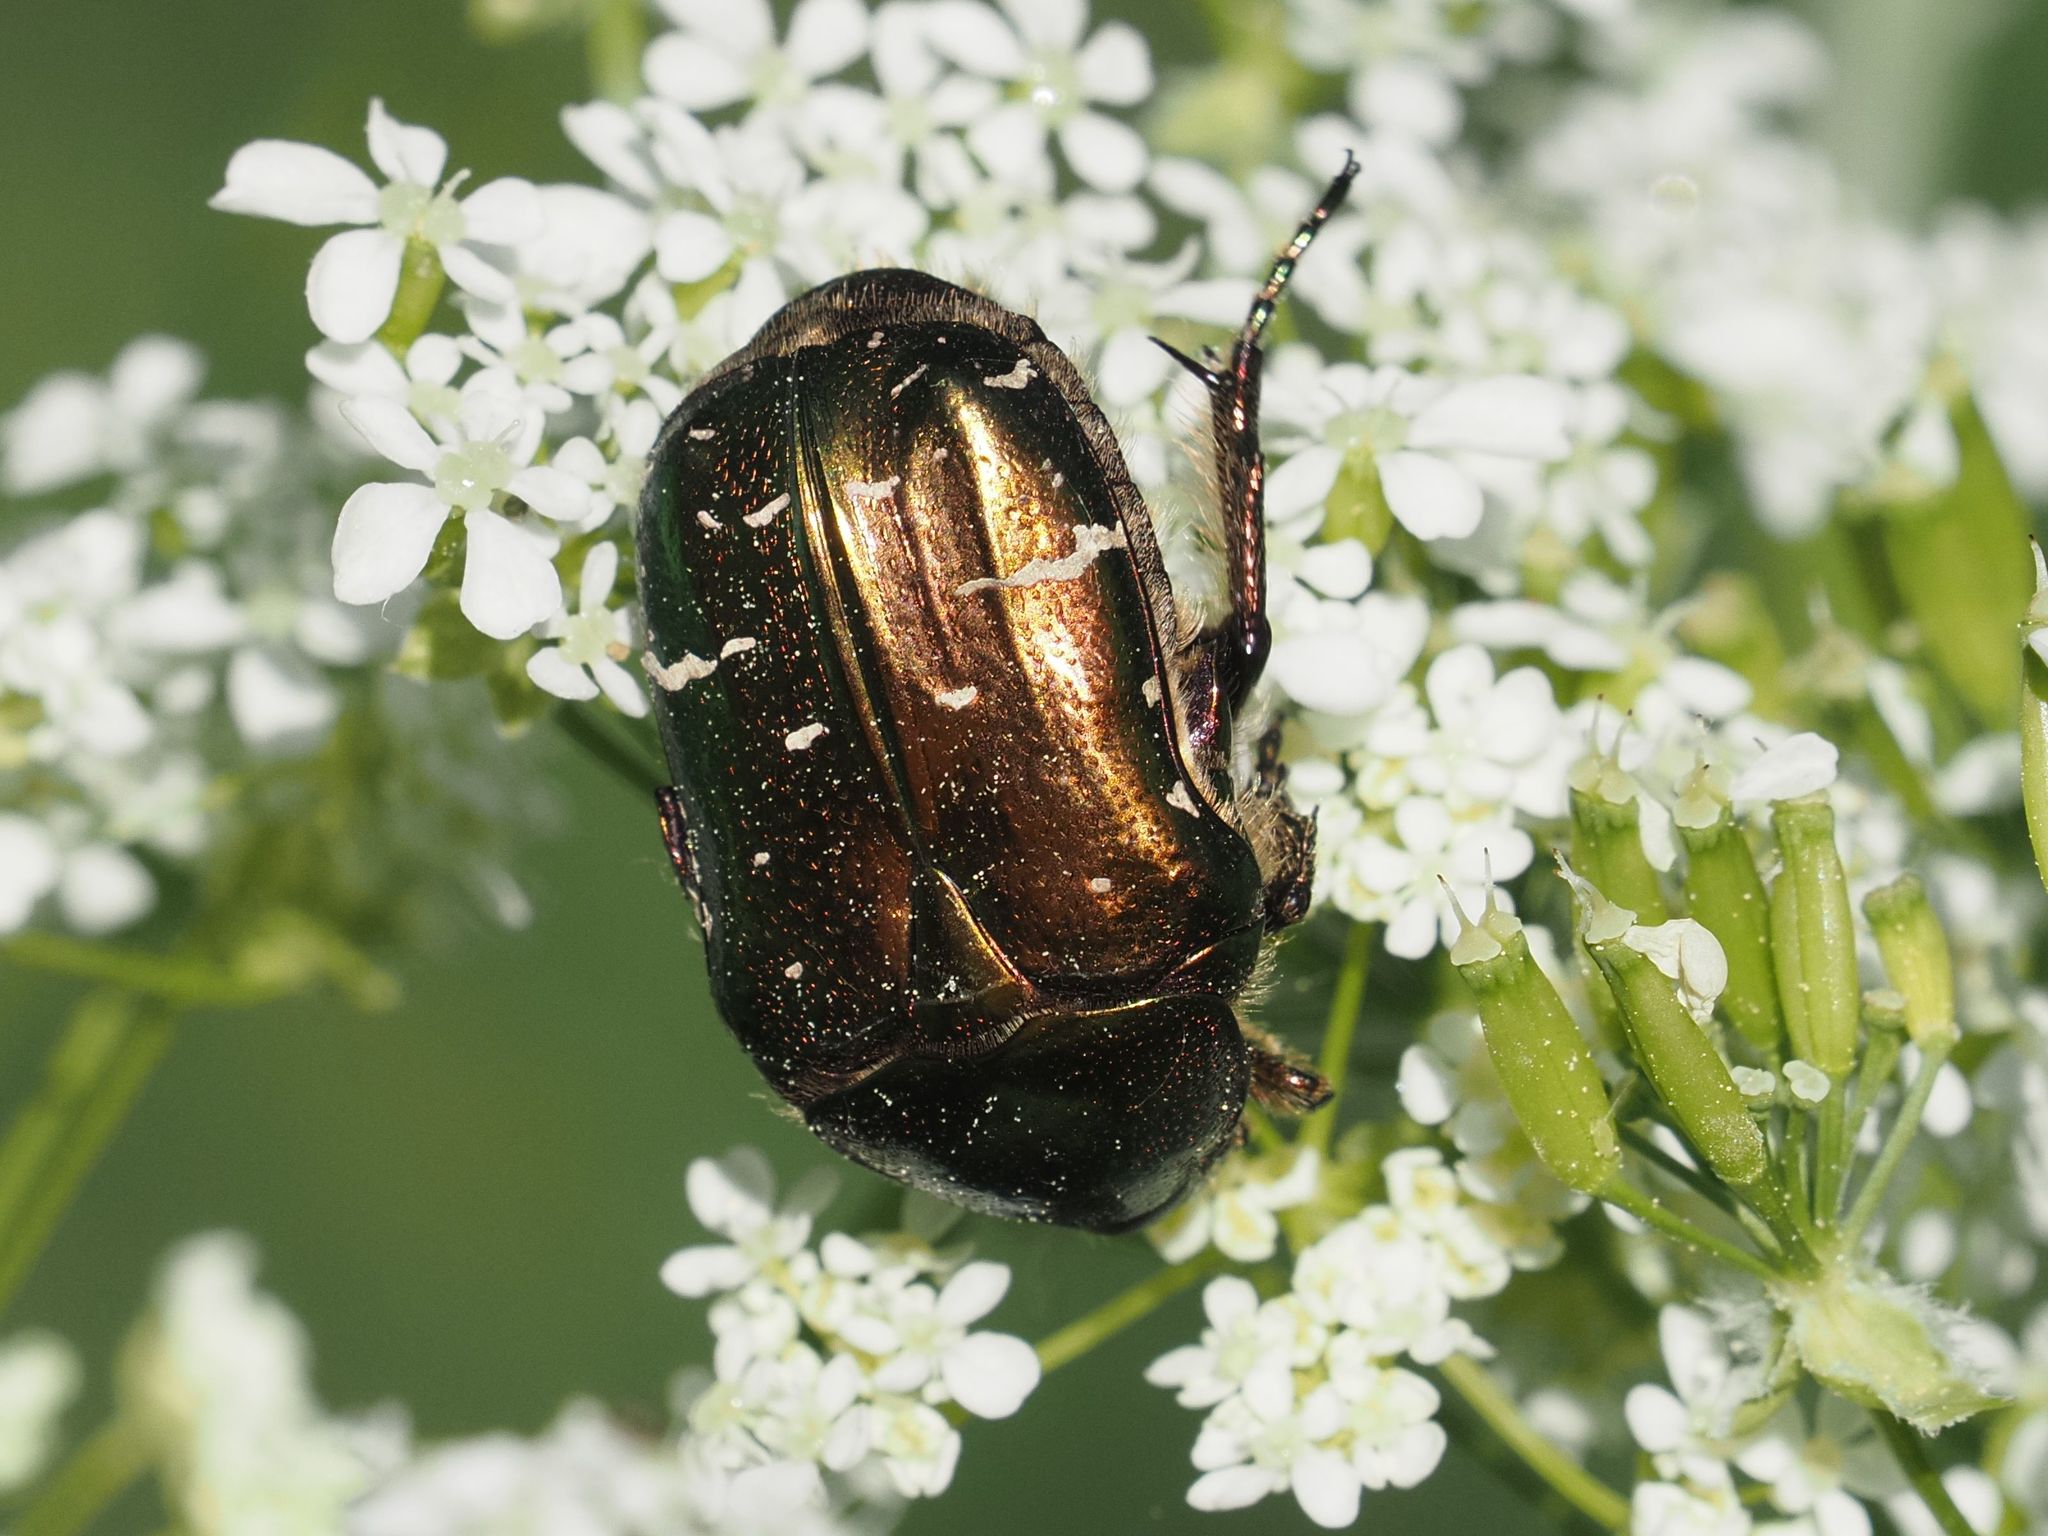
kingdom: Animalia
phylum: Arthropoda
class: Insecta
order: Coleoptera
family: Scarabaeidae
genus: Cetonia
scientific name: Cetonia aurata
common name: Rose chafer
